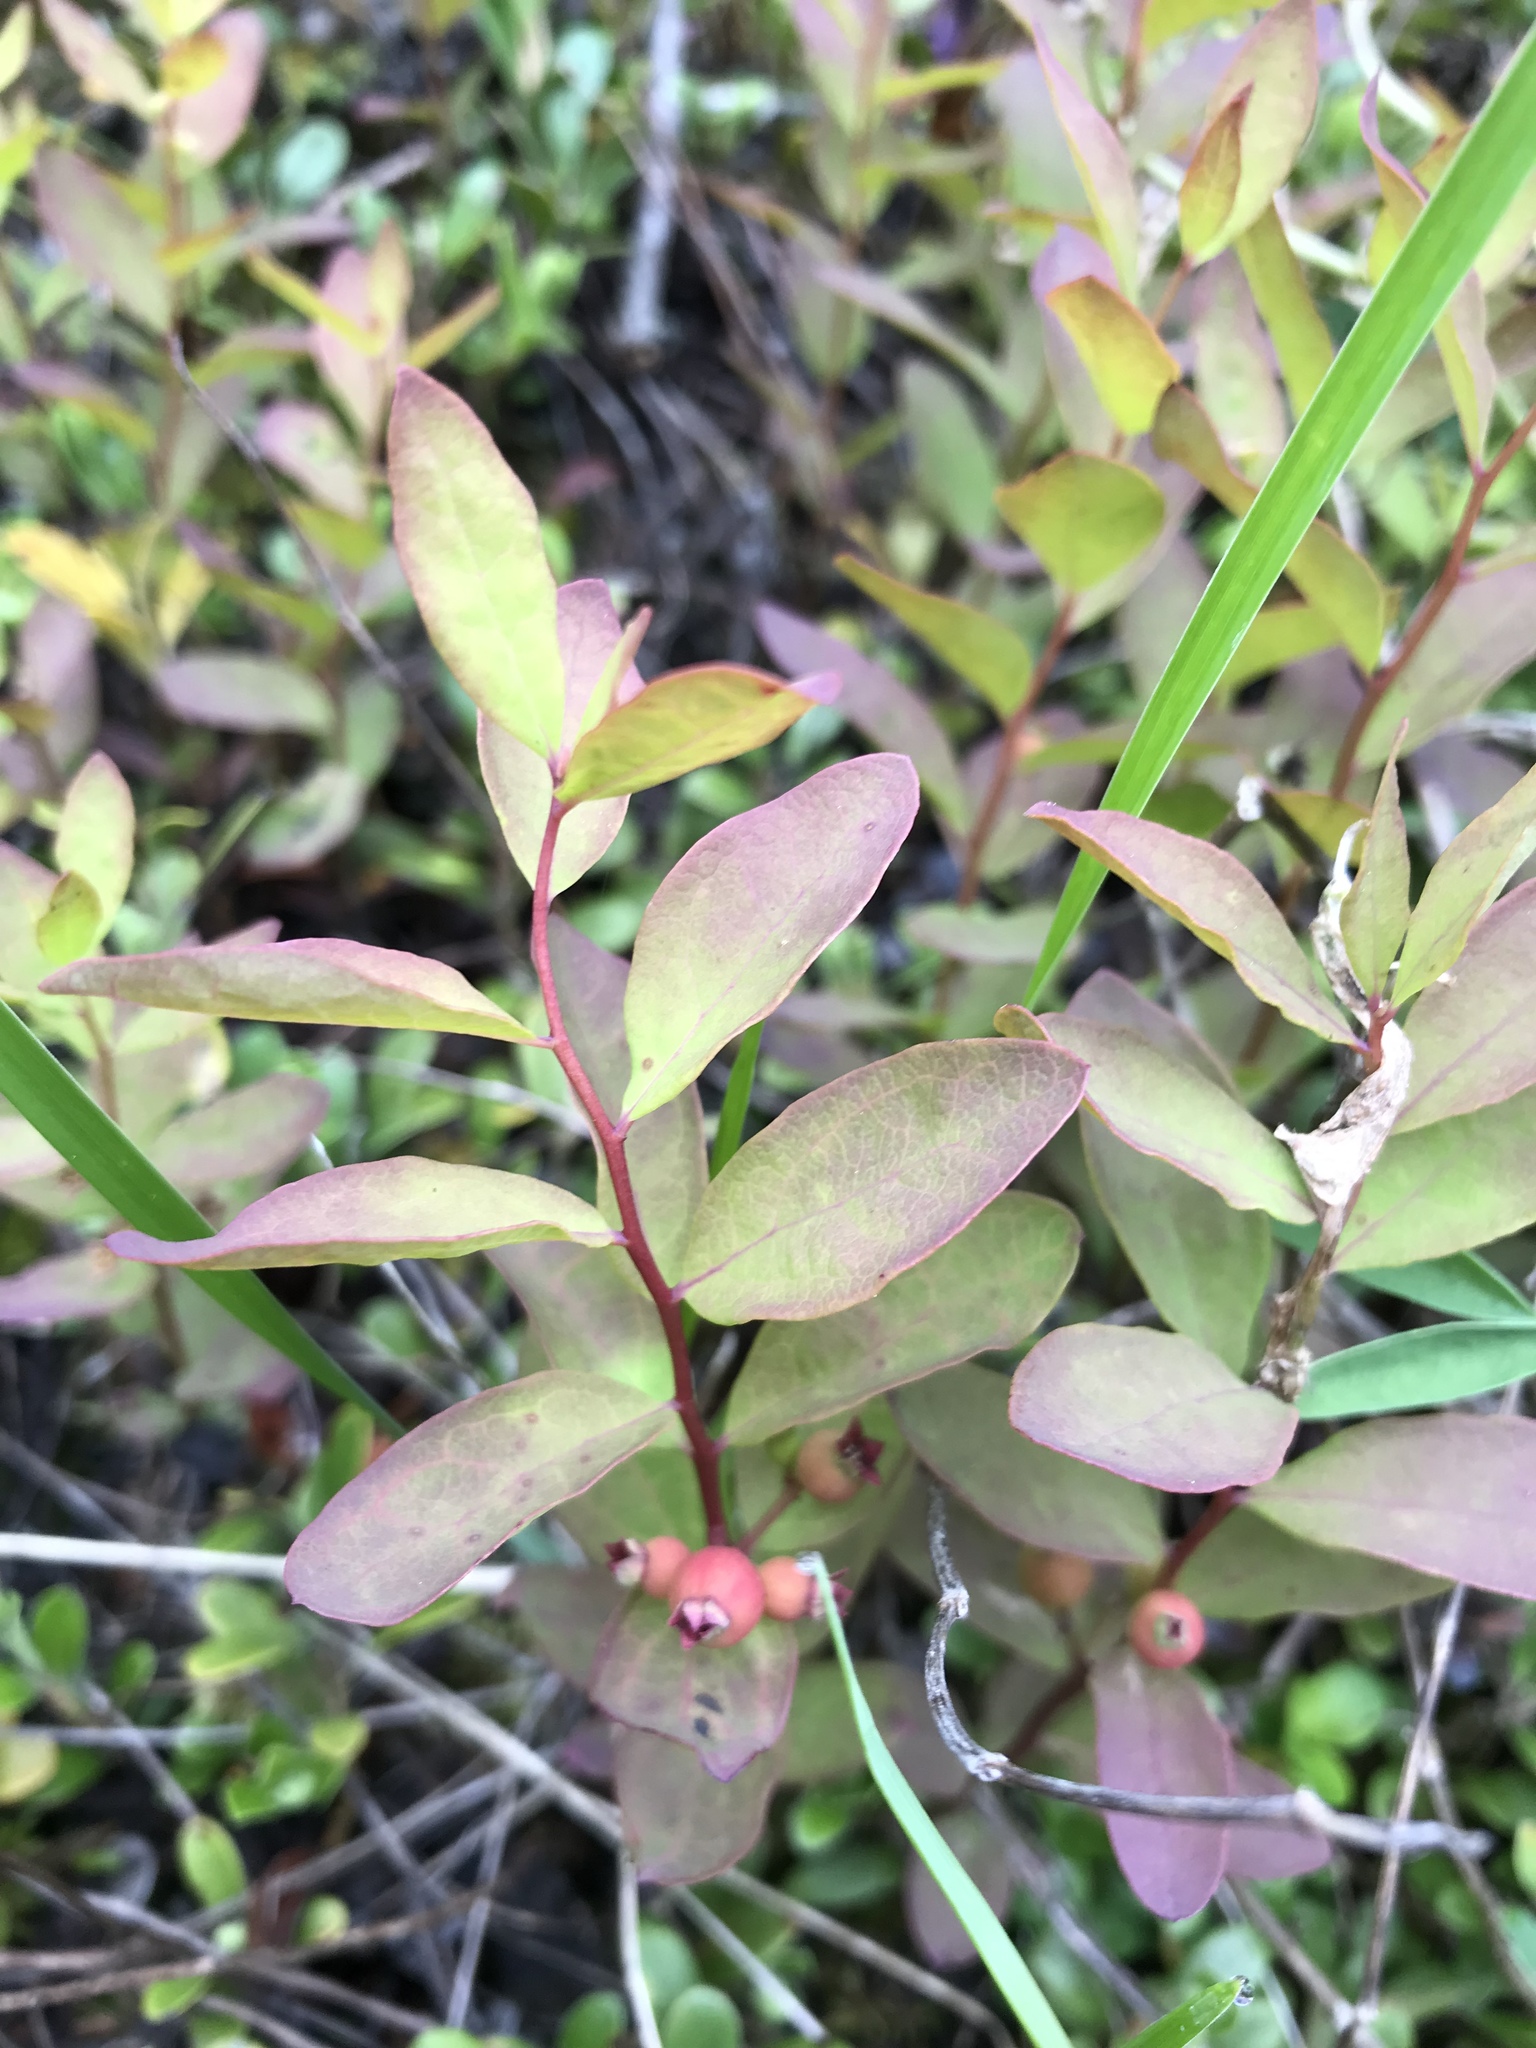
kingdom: Plantae
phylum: Tracheophyta
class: Magnoliopsida
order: Santalales
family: Comandraceae
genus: Geocaulon
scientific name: Geocaulon lividum
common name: Earthberry
